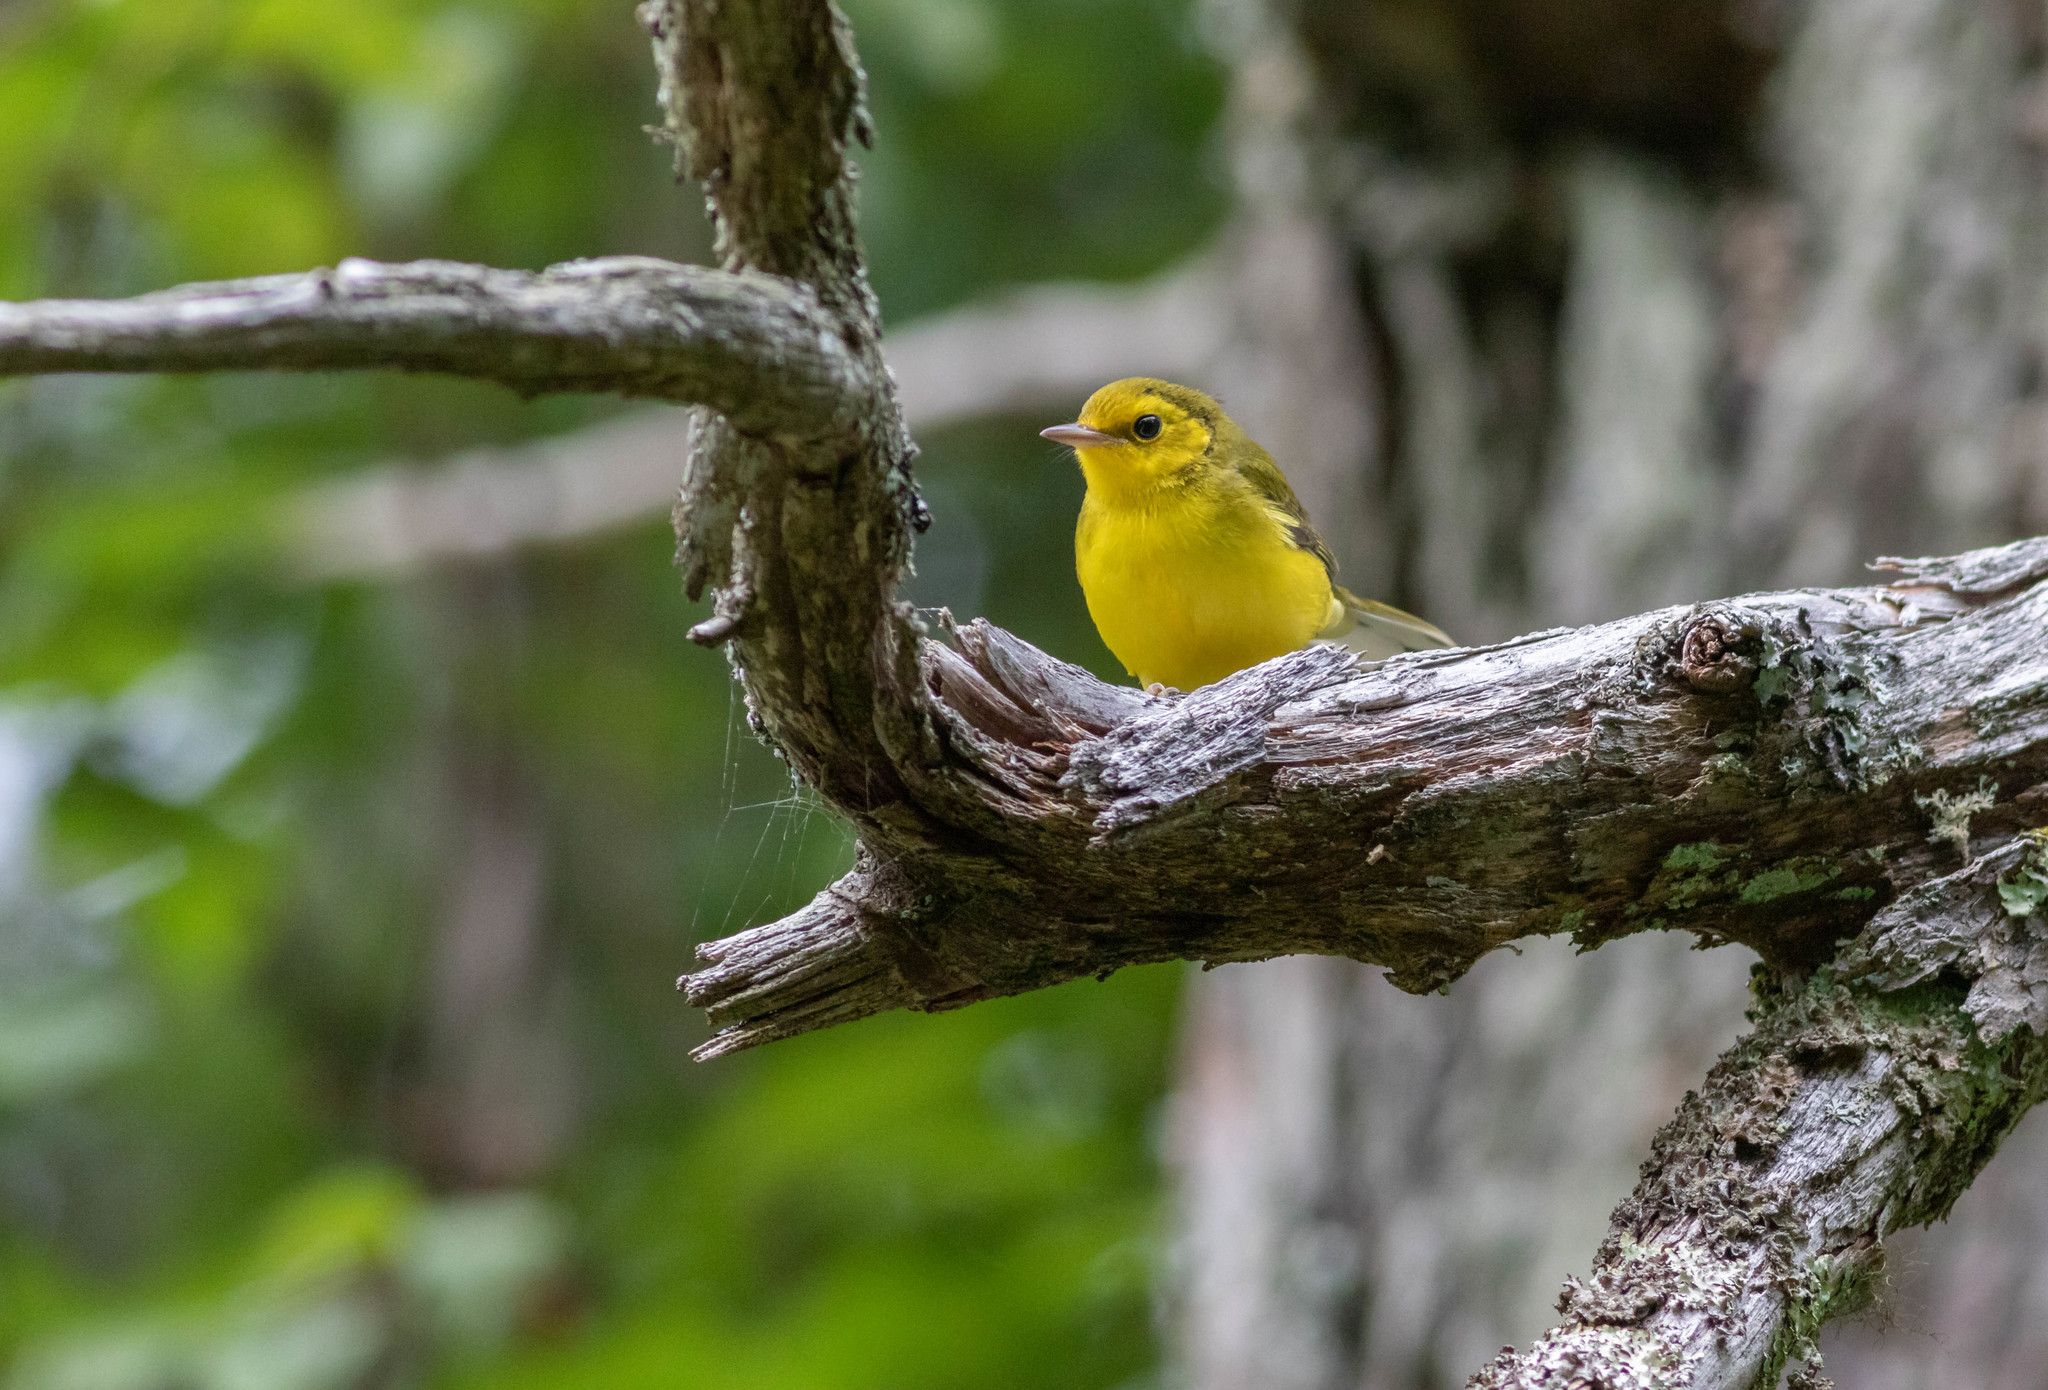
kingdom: Animalia
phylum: Chordata
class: Aves
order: Passeriformes
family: Parulidae
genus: Setophaga
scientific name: Setophaga citrina
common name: Hooded warbler
